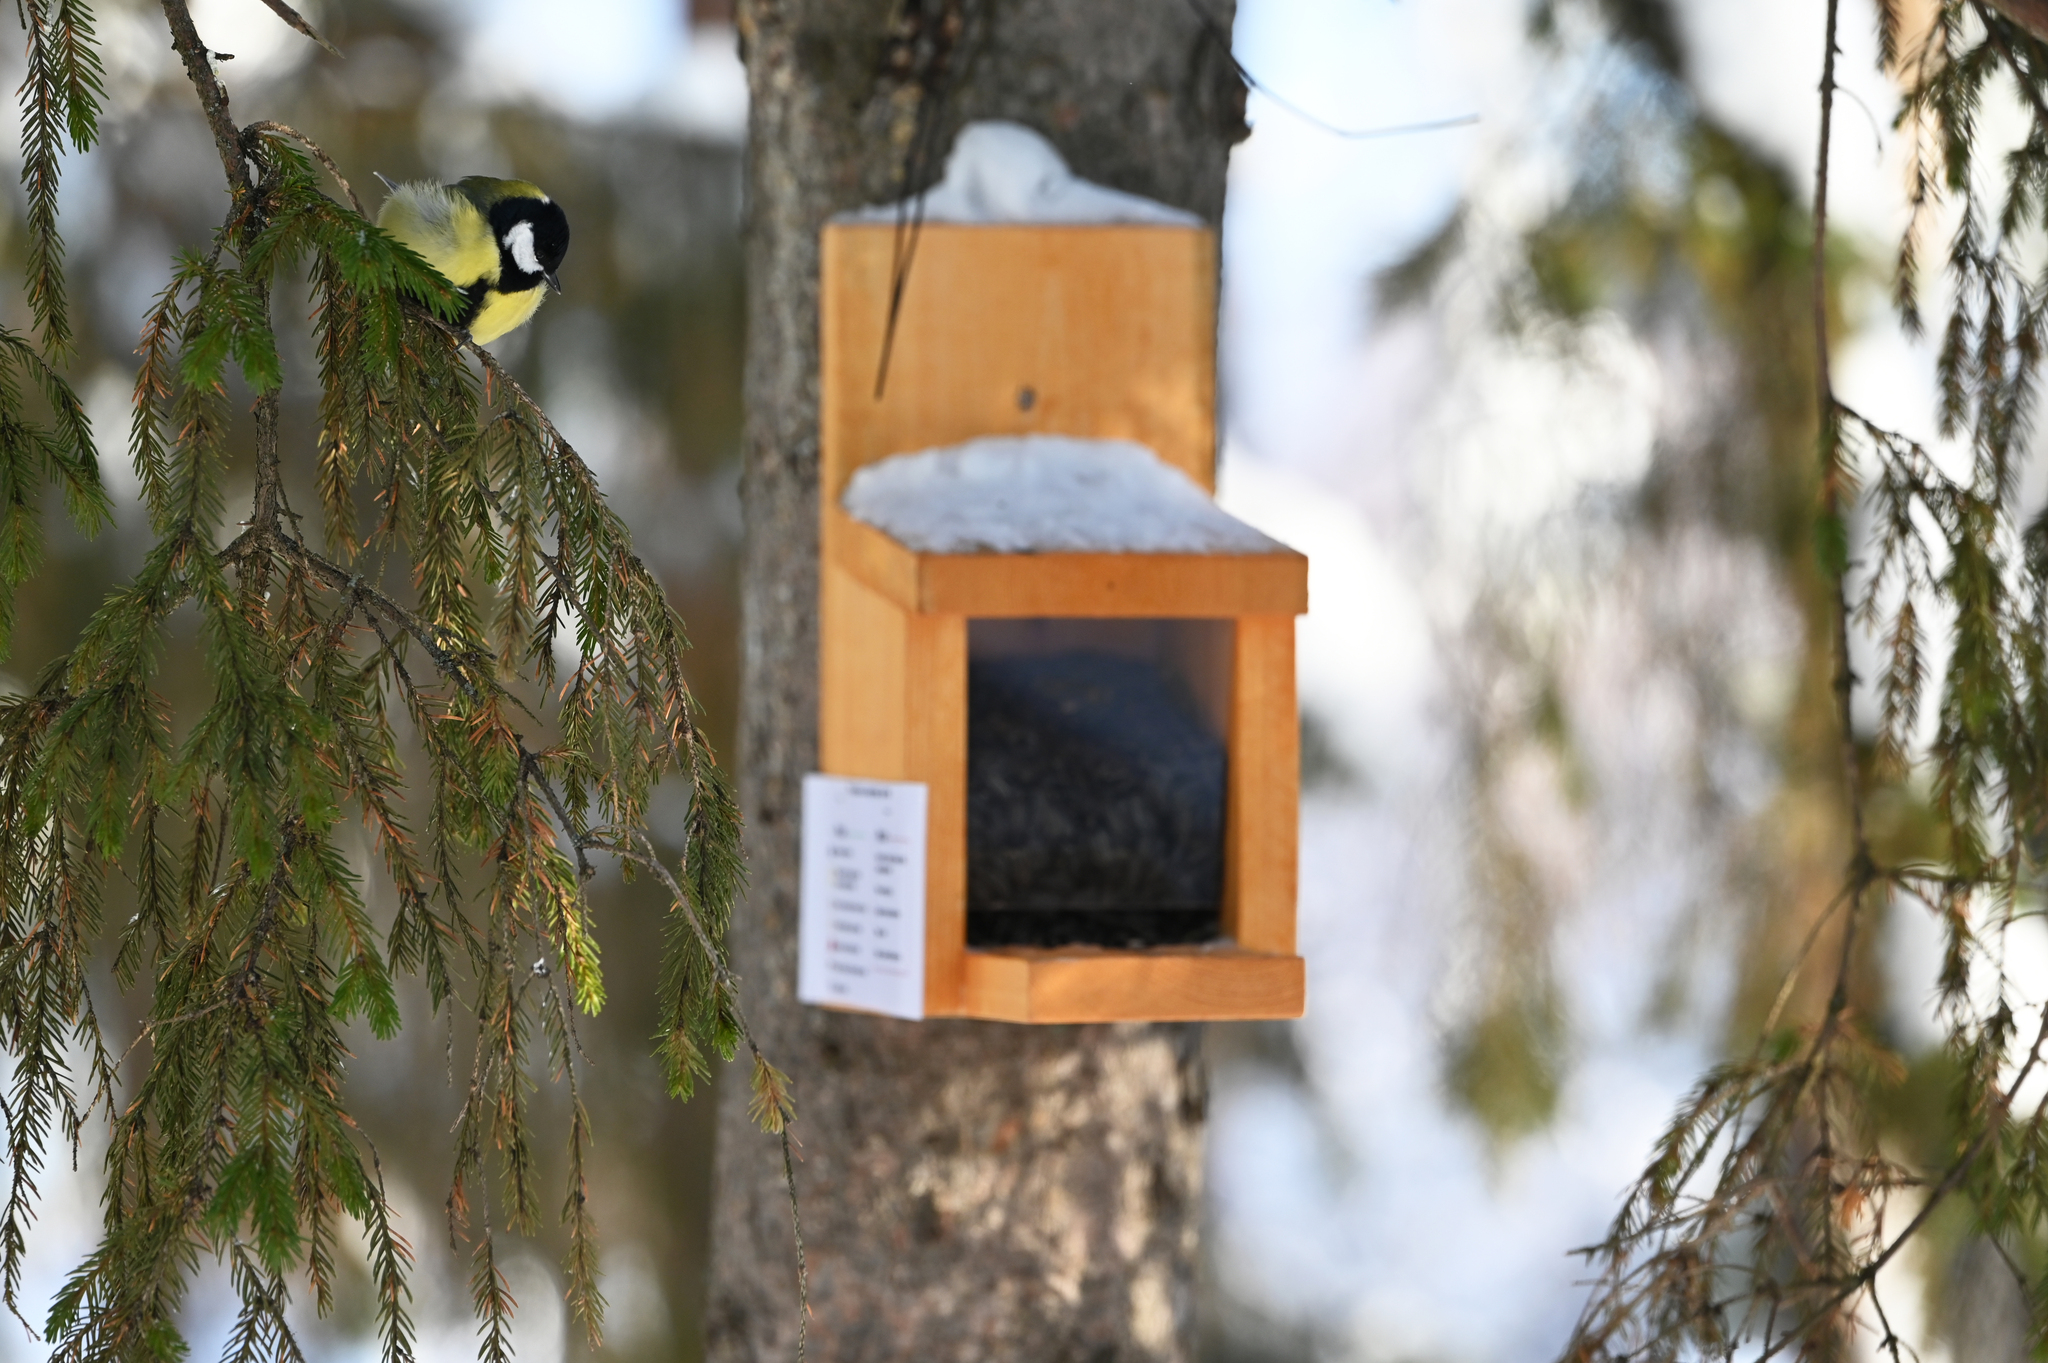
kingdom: Animalia
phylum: Chordata
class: Aves
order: Passeriformes
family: Paridae
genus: Parus
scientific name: Parus major
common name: Great tit
